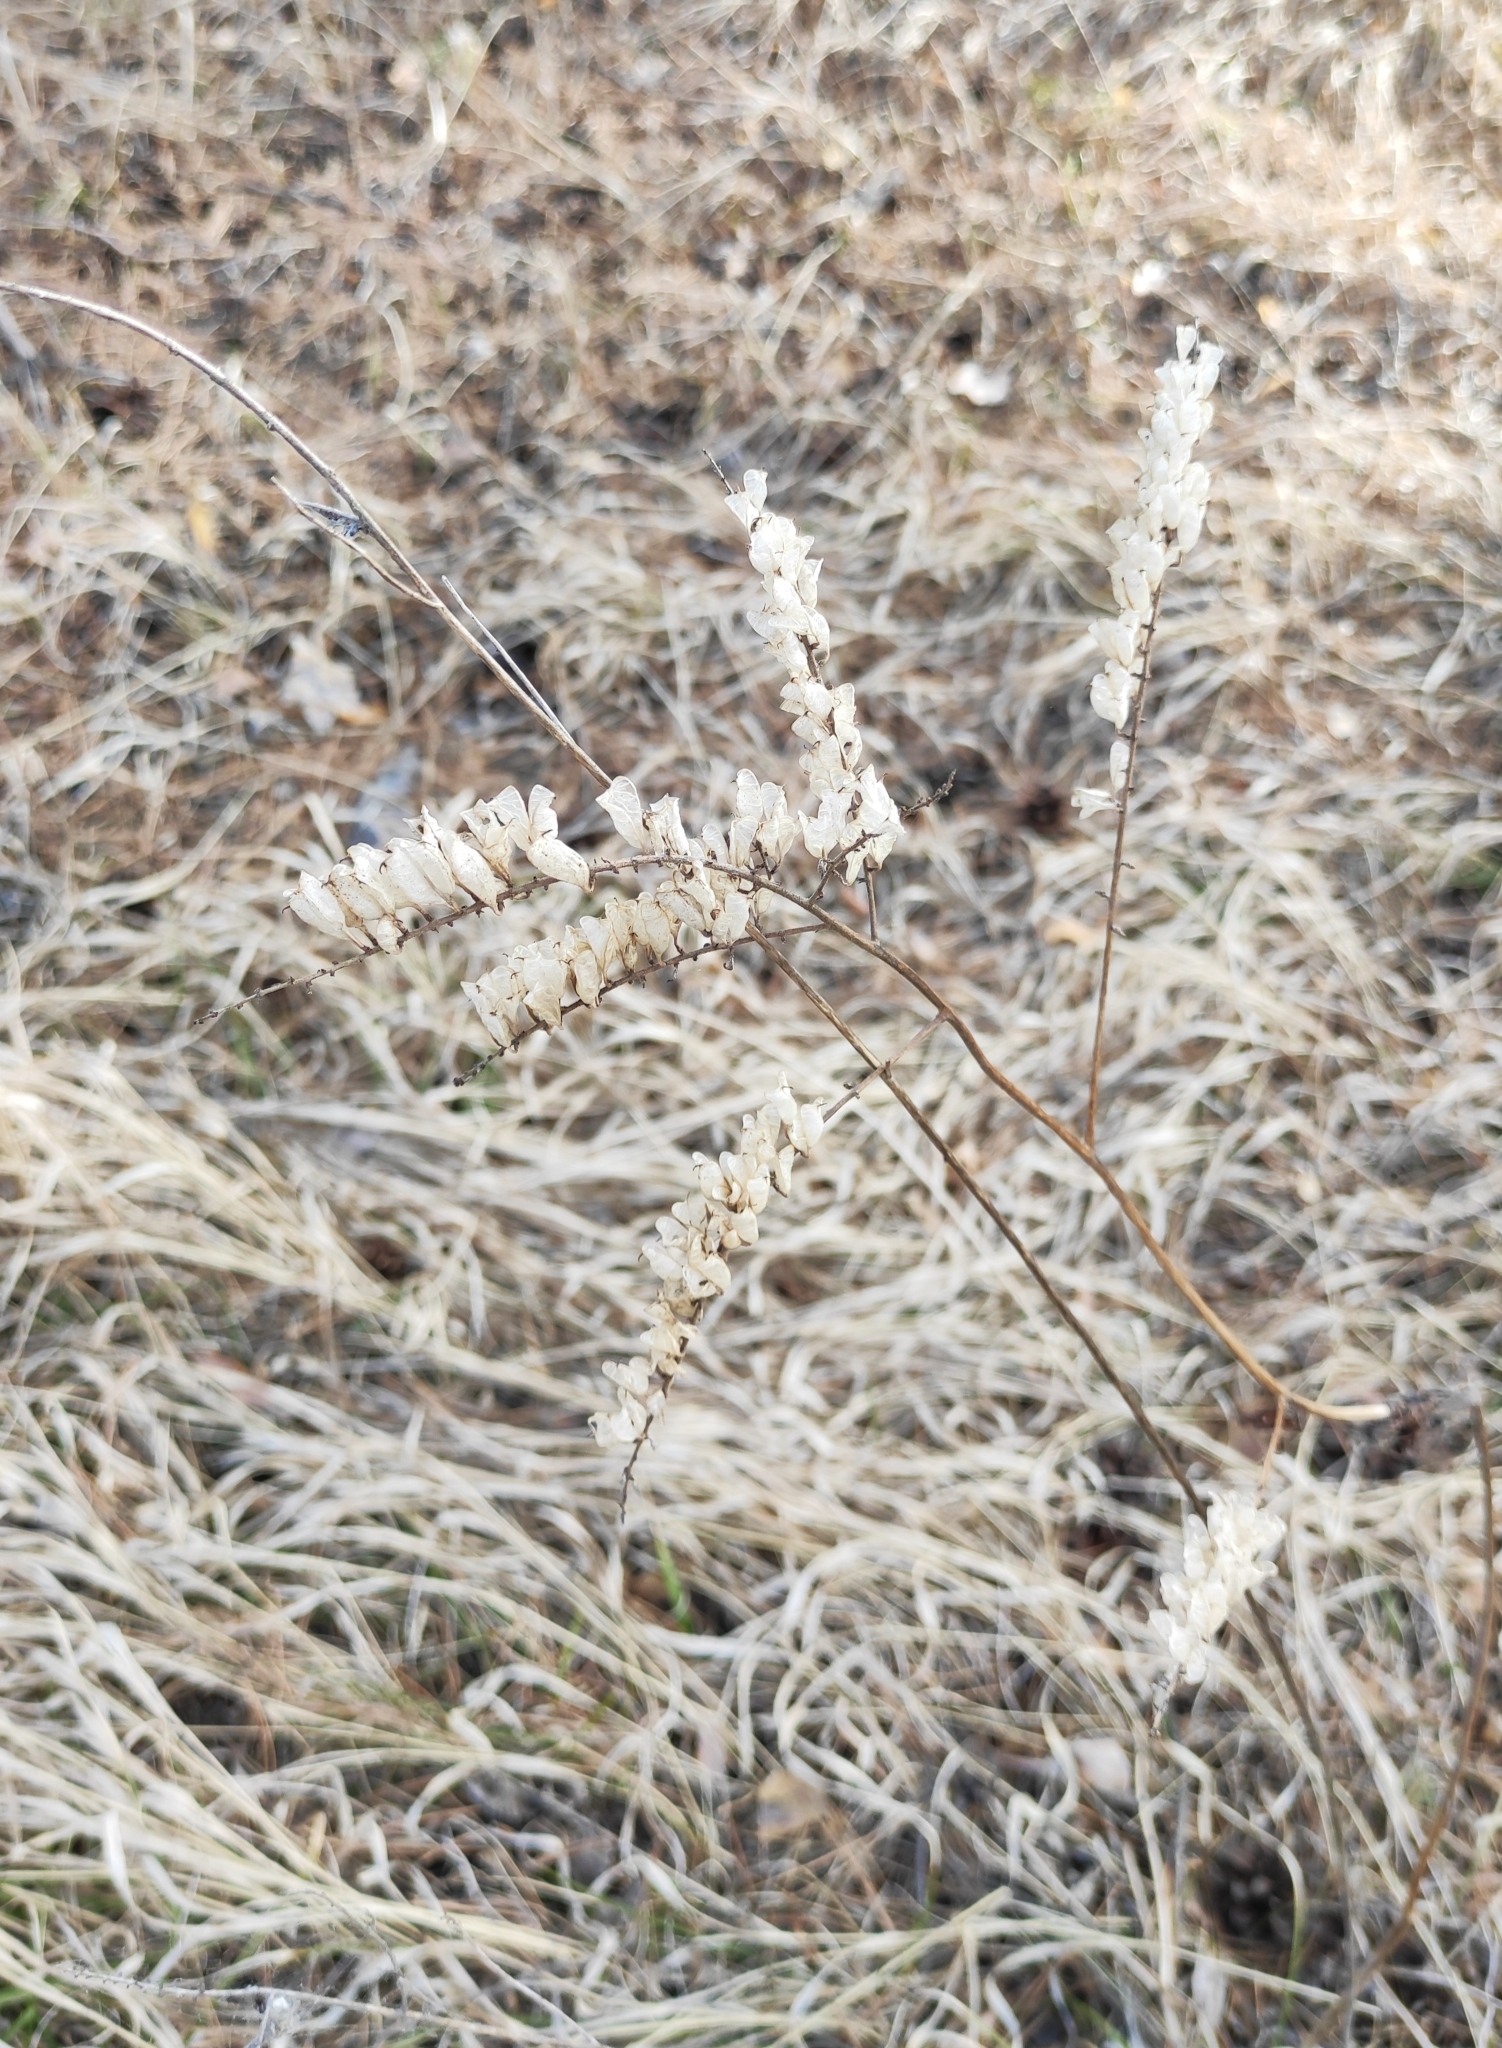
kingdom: Plantae
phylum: Tracheophyta
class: Magnoliopsida
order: Ranunculales
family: Ranunculaceae
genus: Actaea
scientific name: Actaea cimicifuga
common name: Chinese cimicifuga
